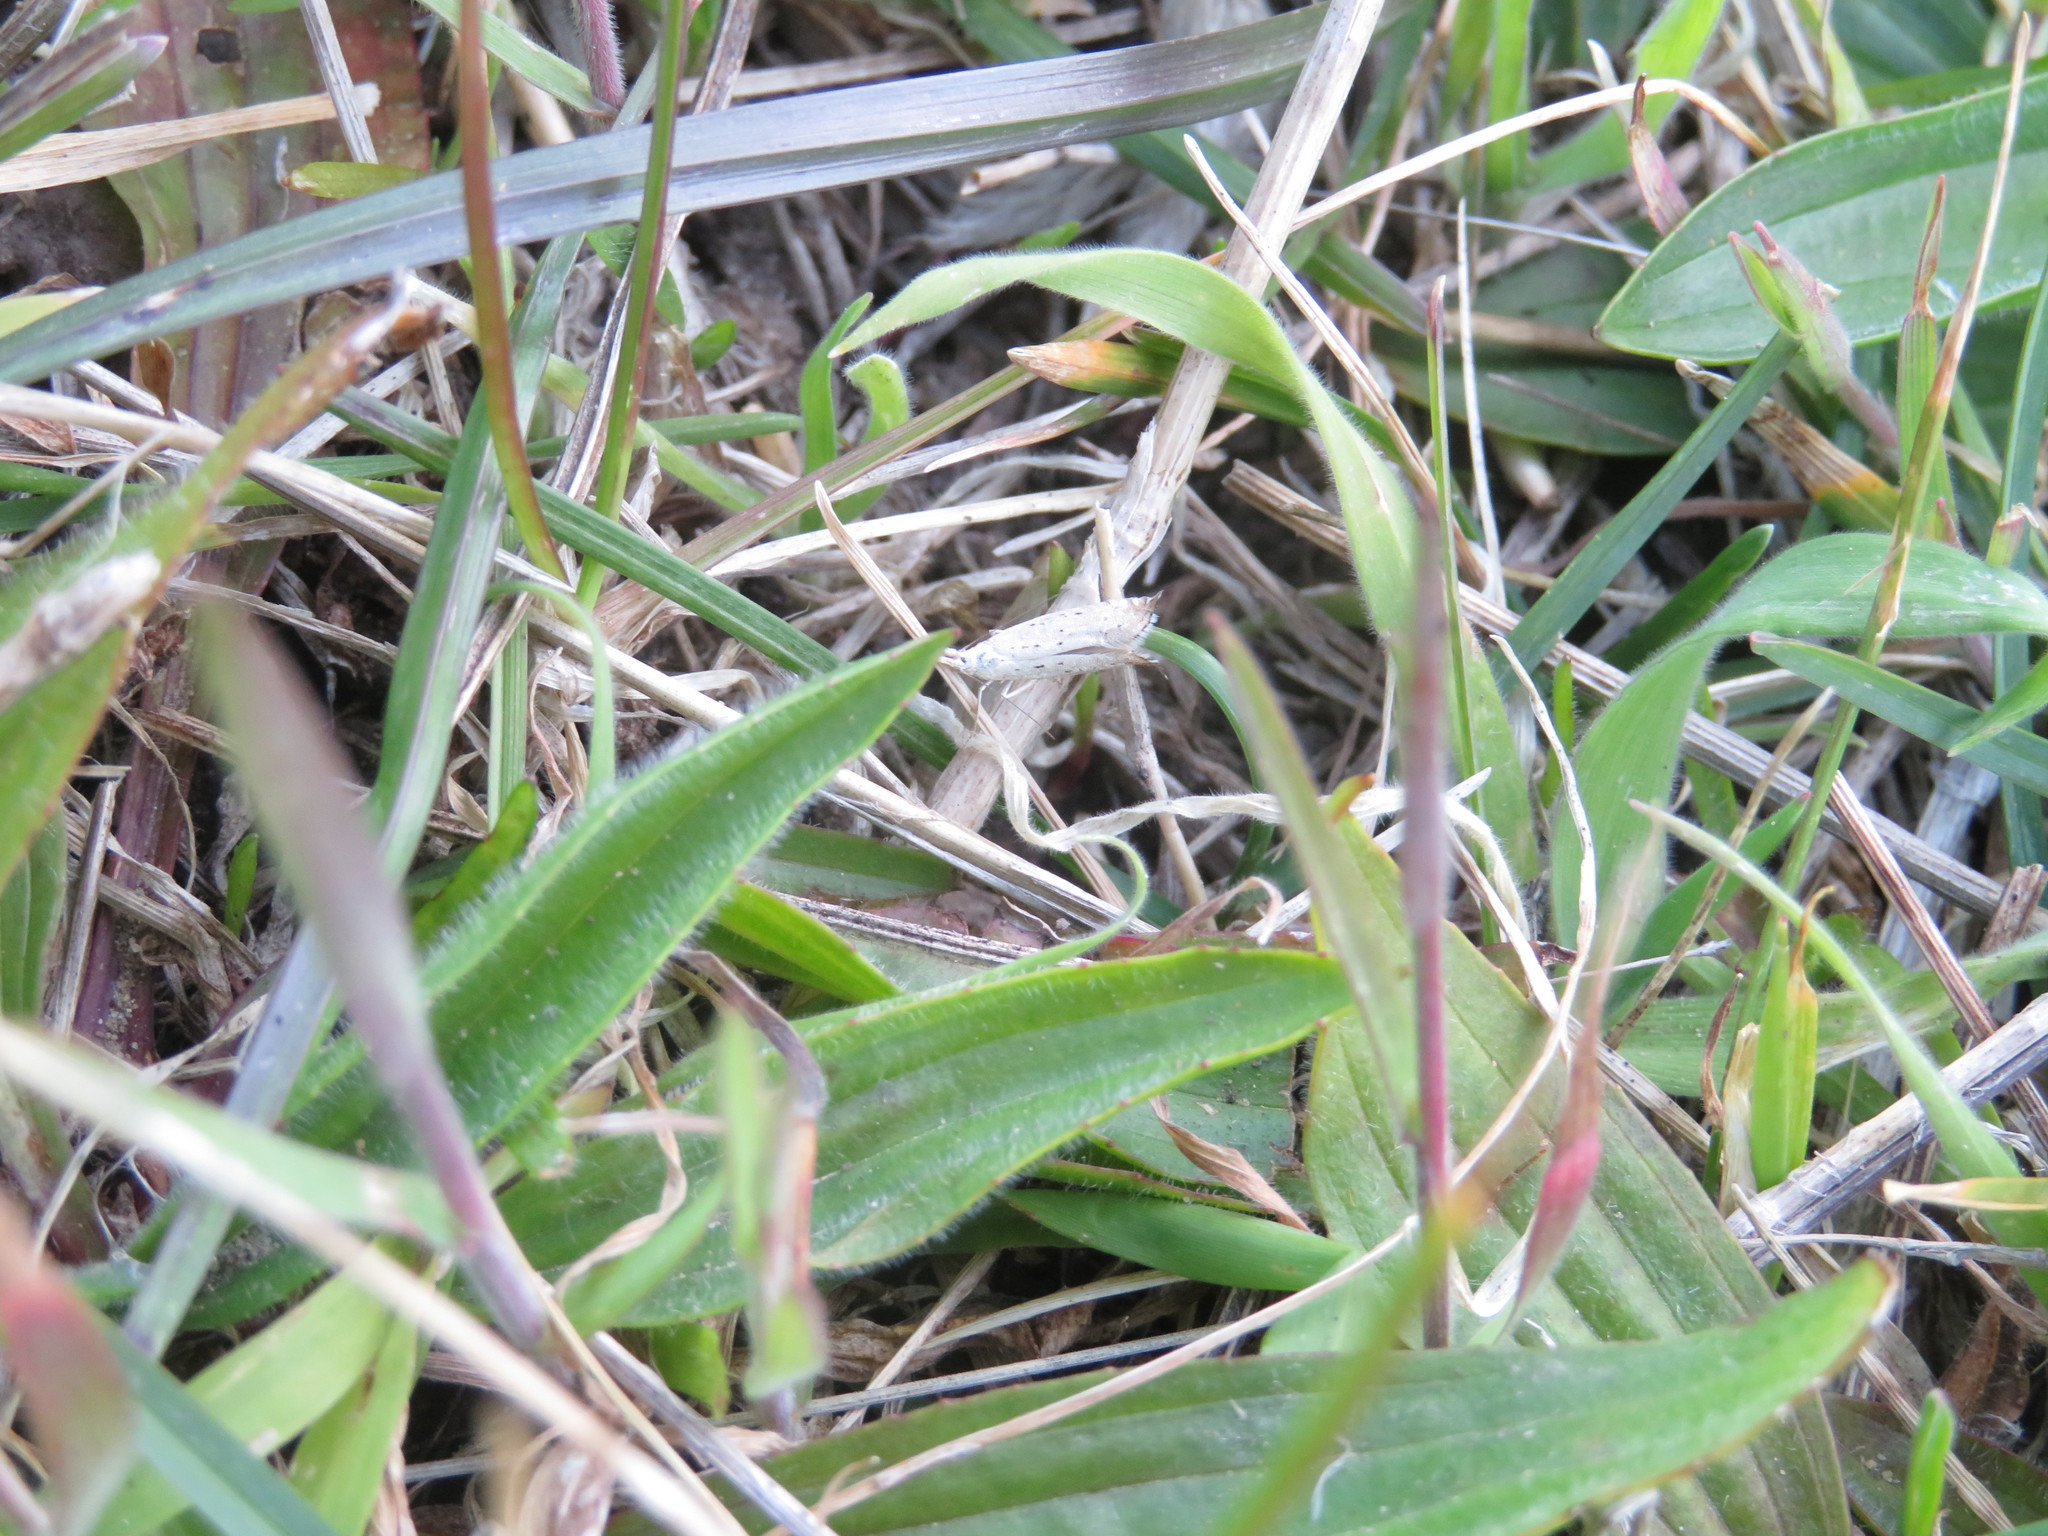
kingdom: Animalia
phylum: Arthropoda
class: Insecta
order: Lepidoptera
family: Glyphipterigidae
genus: Glyphipterix
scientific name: Glyphipterix achlyoessa
